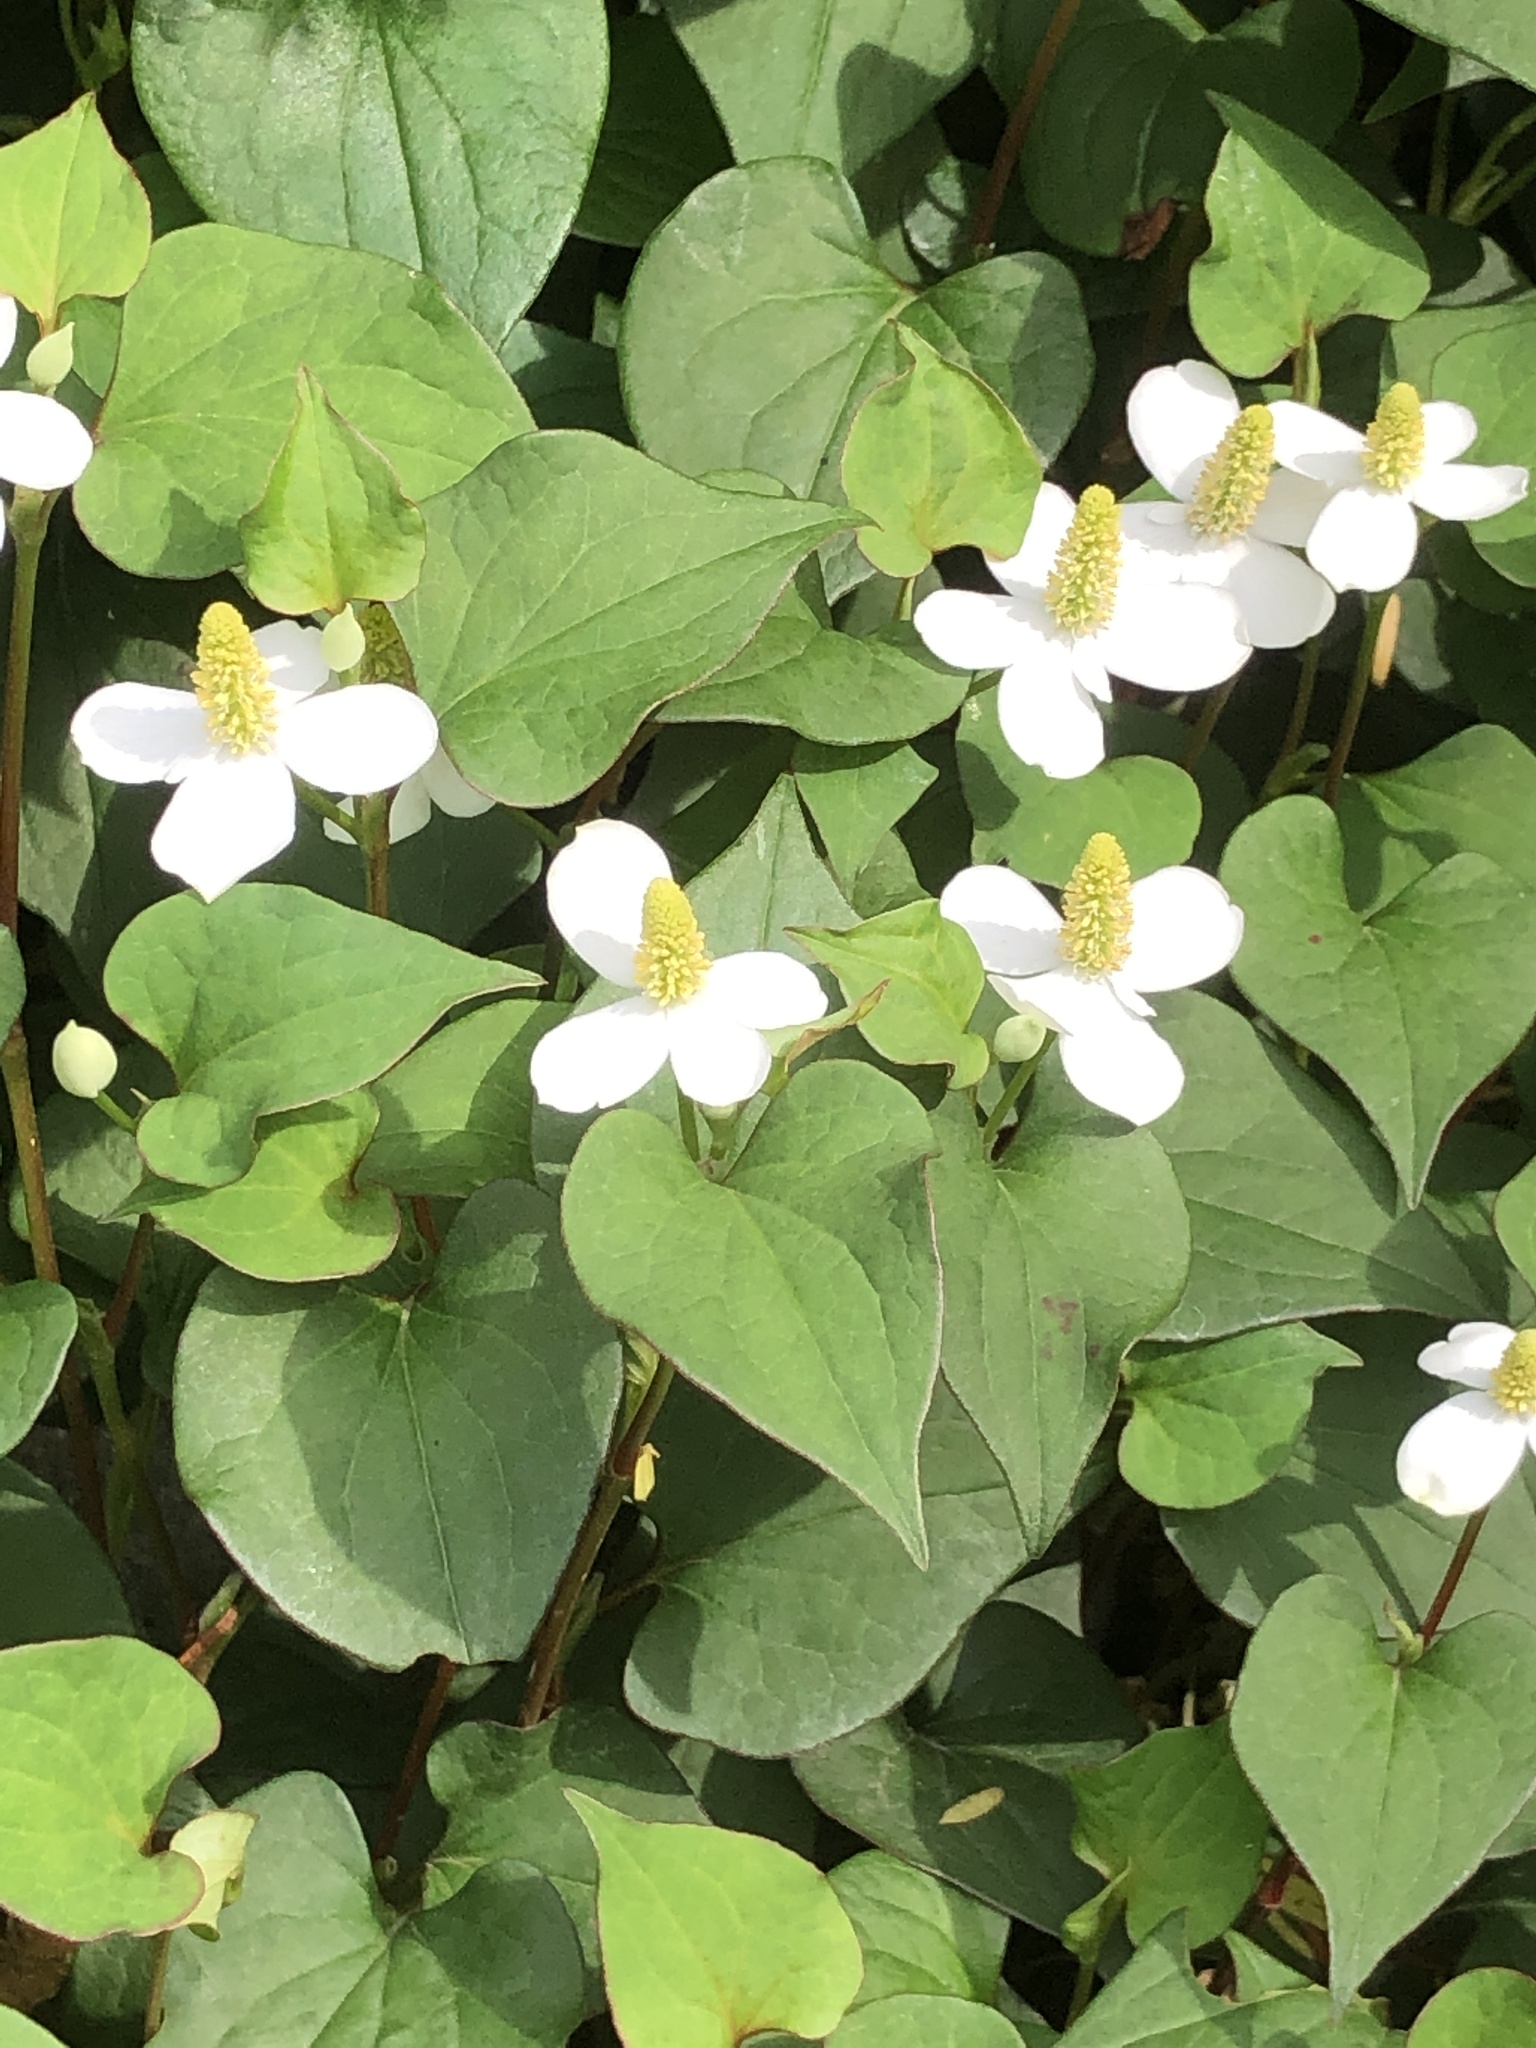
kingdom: Plantae
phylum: Tracheophyta
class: Magnoliopsida
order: Piperales
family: Saururaceae
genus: Houttuynia
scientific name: Houttuynia cordata
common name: Chameleon
